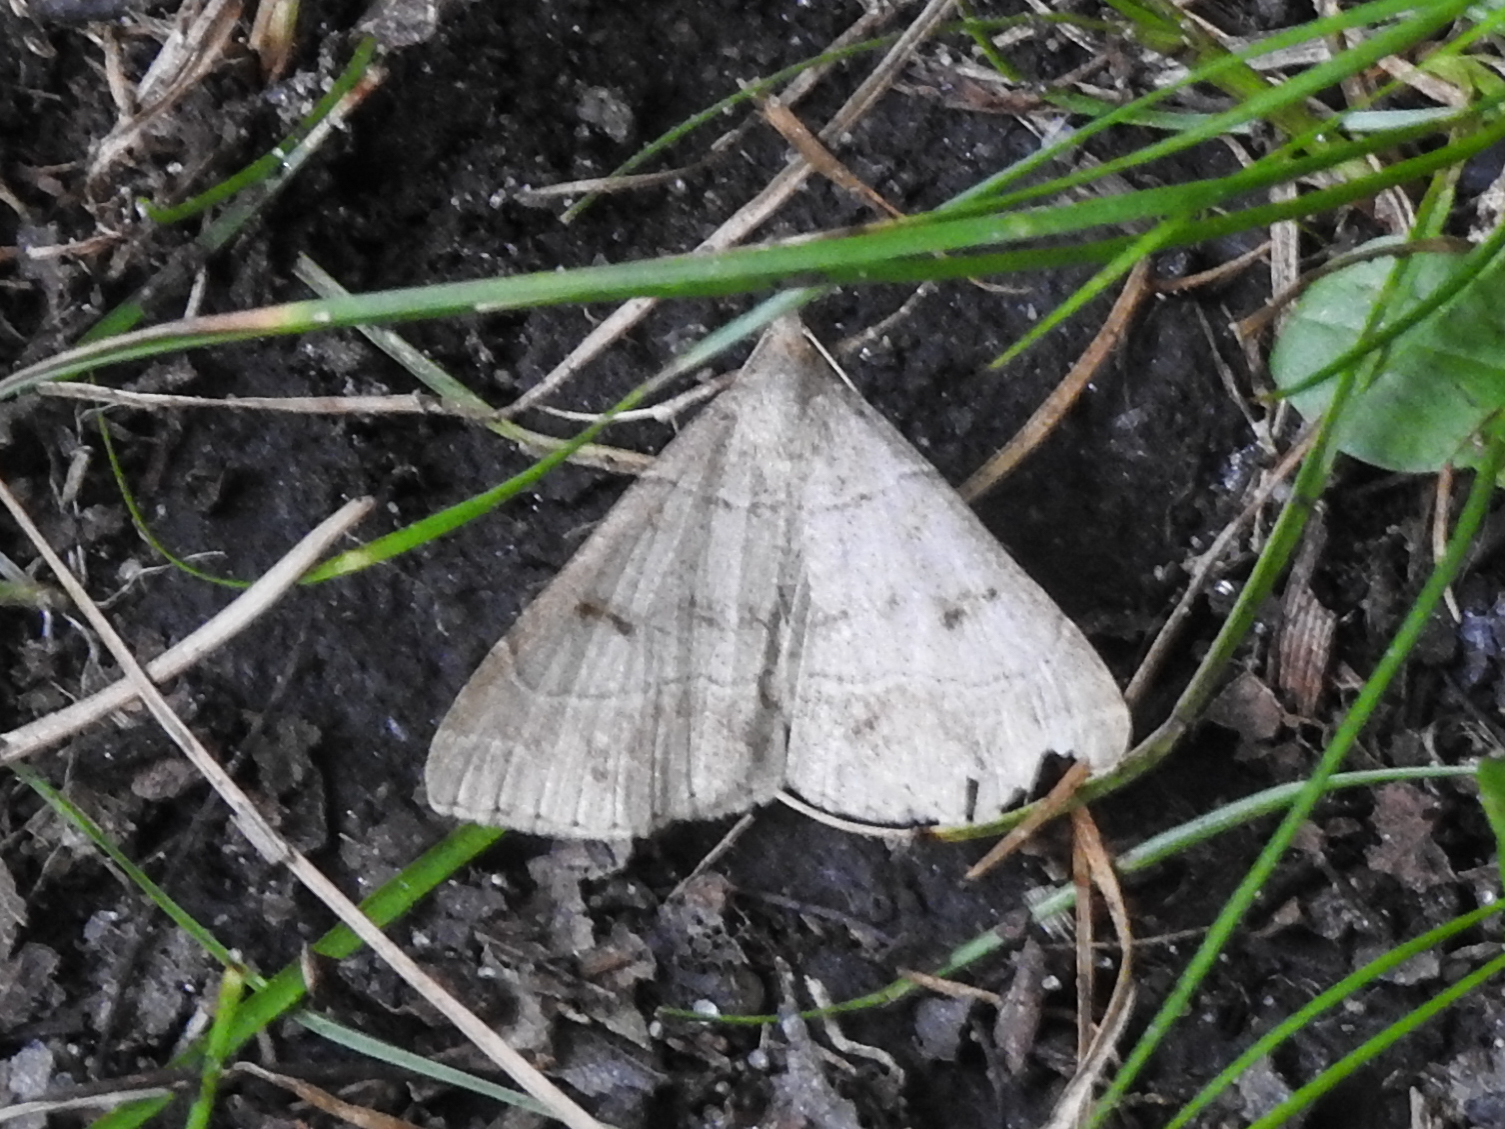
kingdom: Animalia
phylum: Arthropoda
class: Insecta
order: Lepidoptera
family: Erebidae
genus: Renia
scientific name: Renia flavipunctalis
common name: Yellow-spotted renia moth
